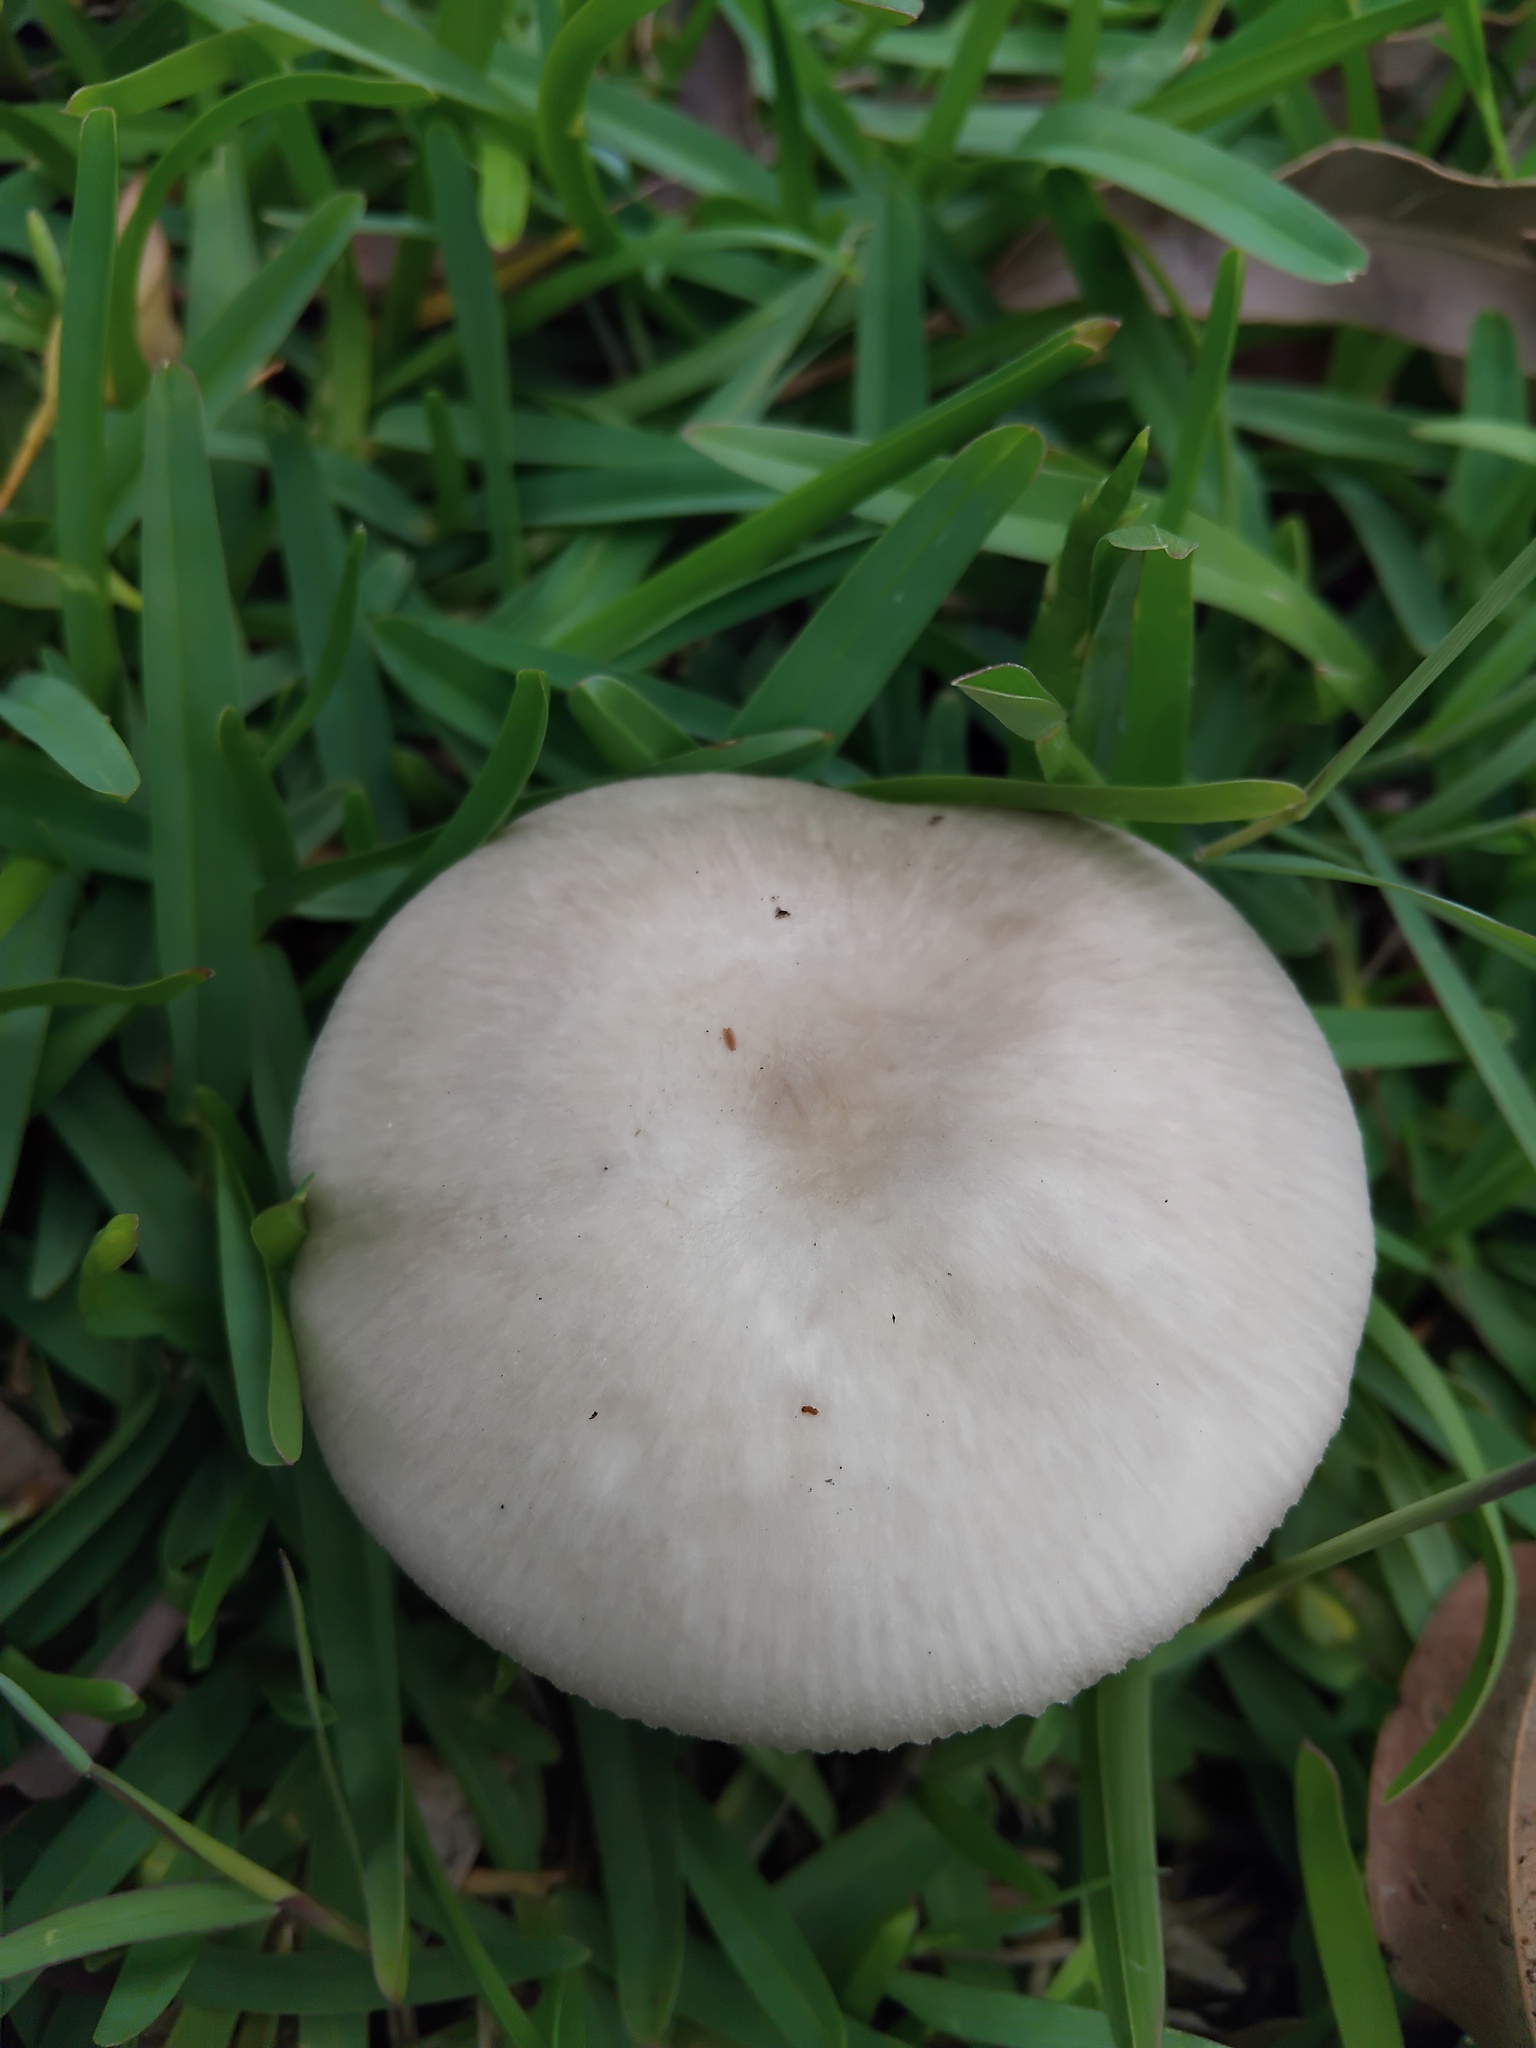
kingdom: Fungi
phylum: Basidiomycota
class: Agaricomycetes
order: Agaricales
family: Amanitaceae
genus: Amanita
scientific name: Amanita marmorata
